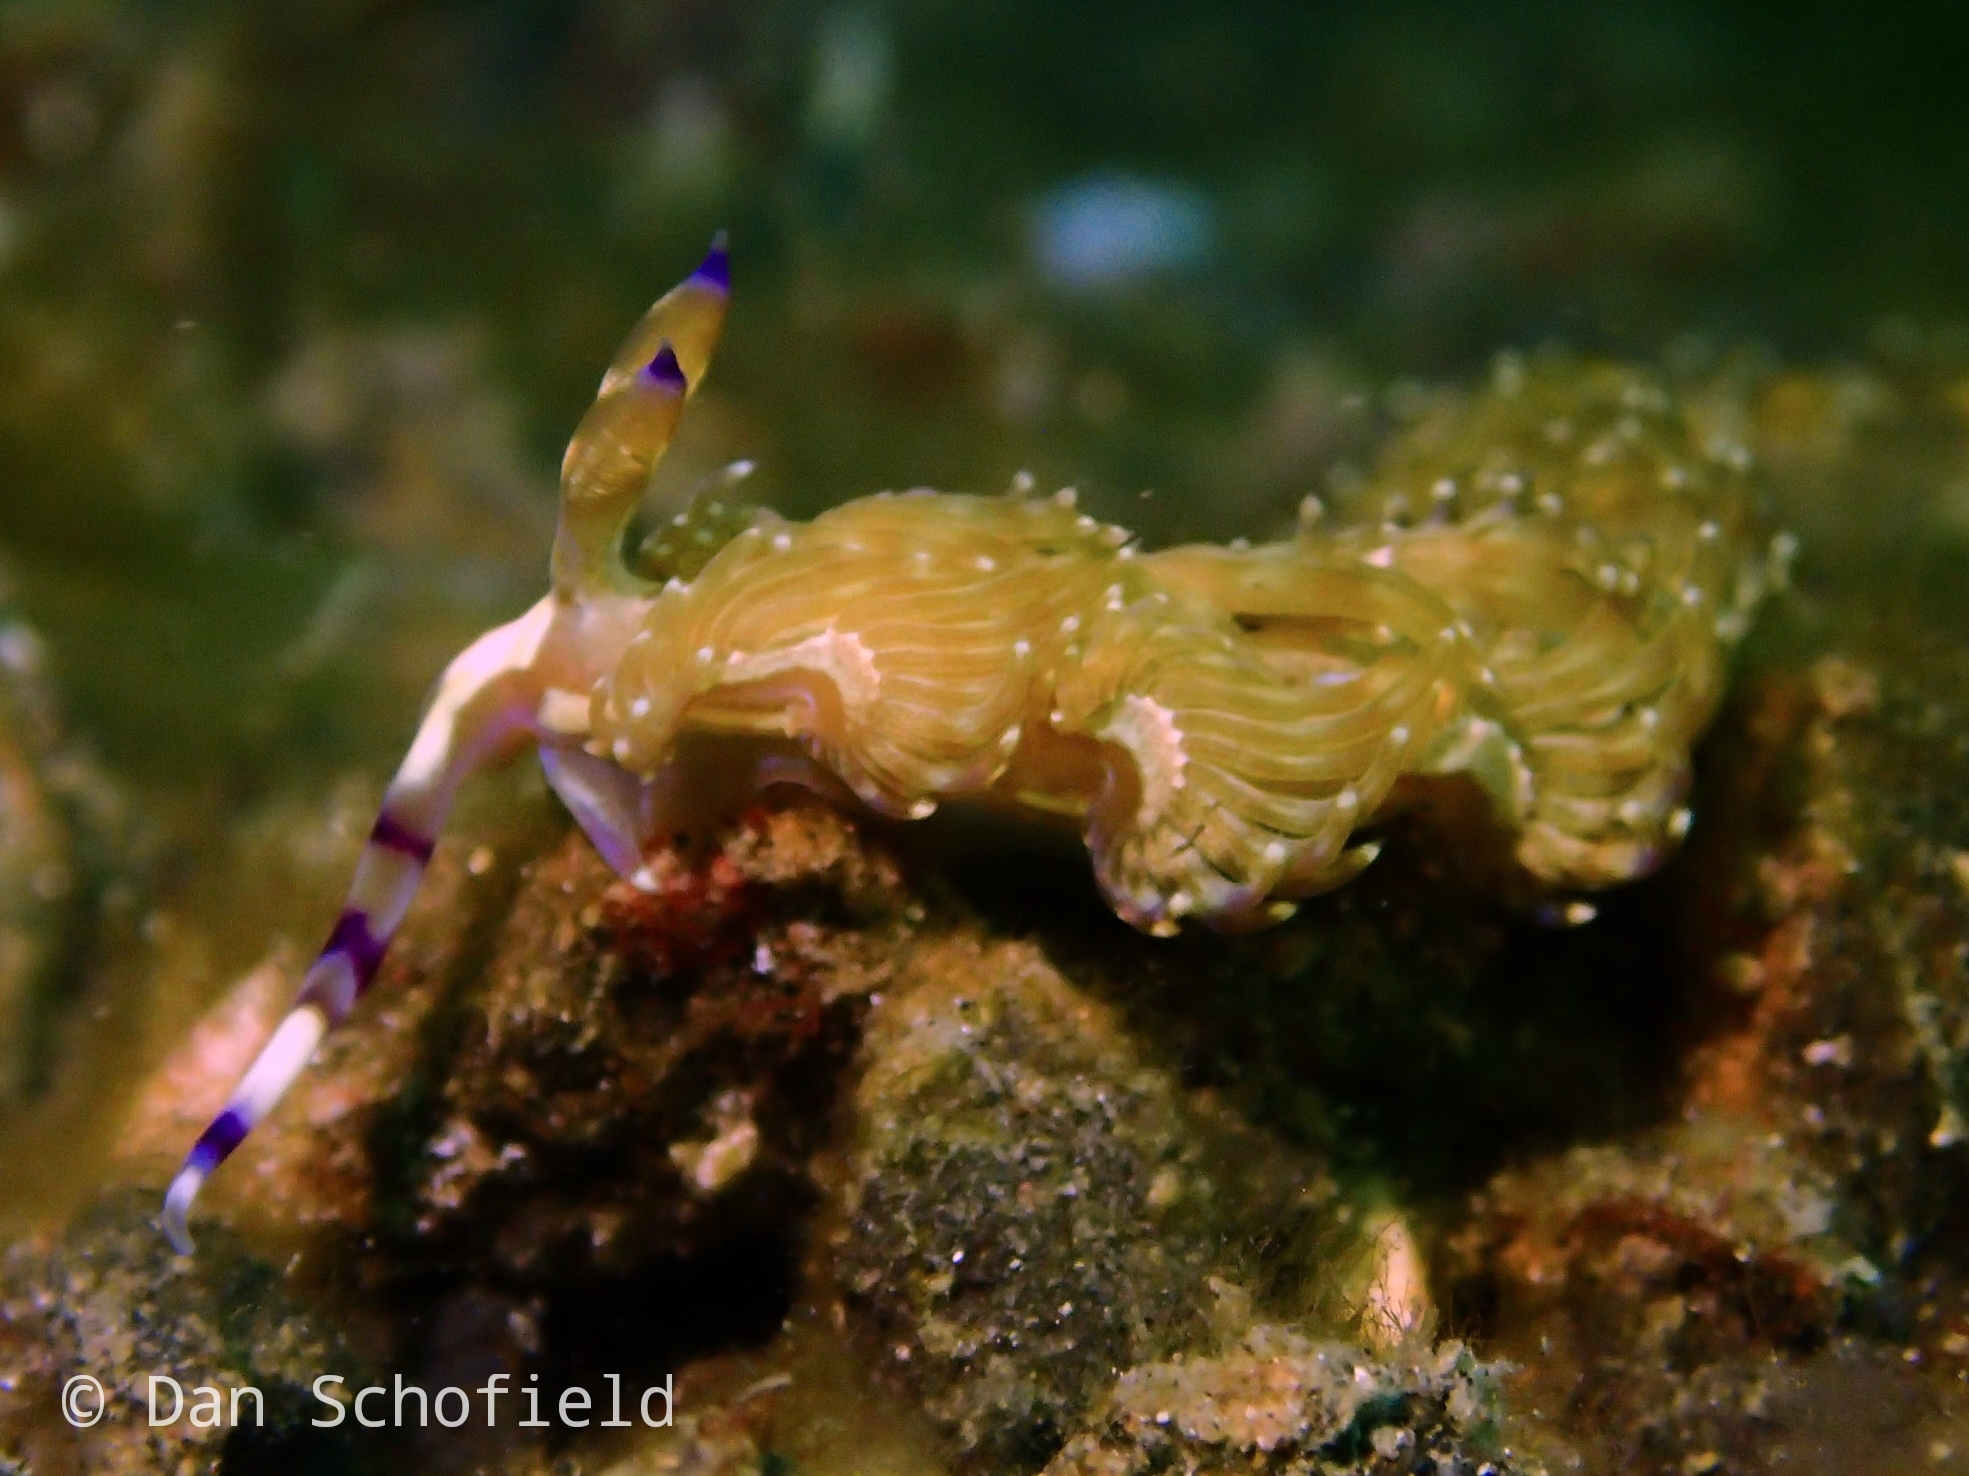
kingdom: Animalia
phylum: Mollusca
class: Gastropoda
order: Nudibranchia
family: Facelinidae
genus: Pteraeolidia
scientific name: Pteraeolidia semperi
